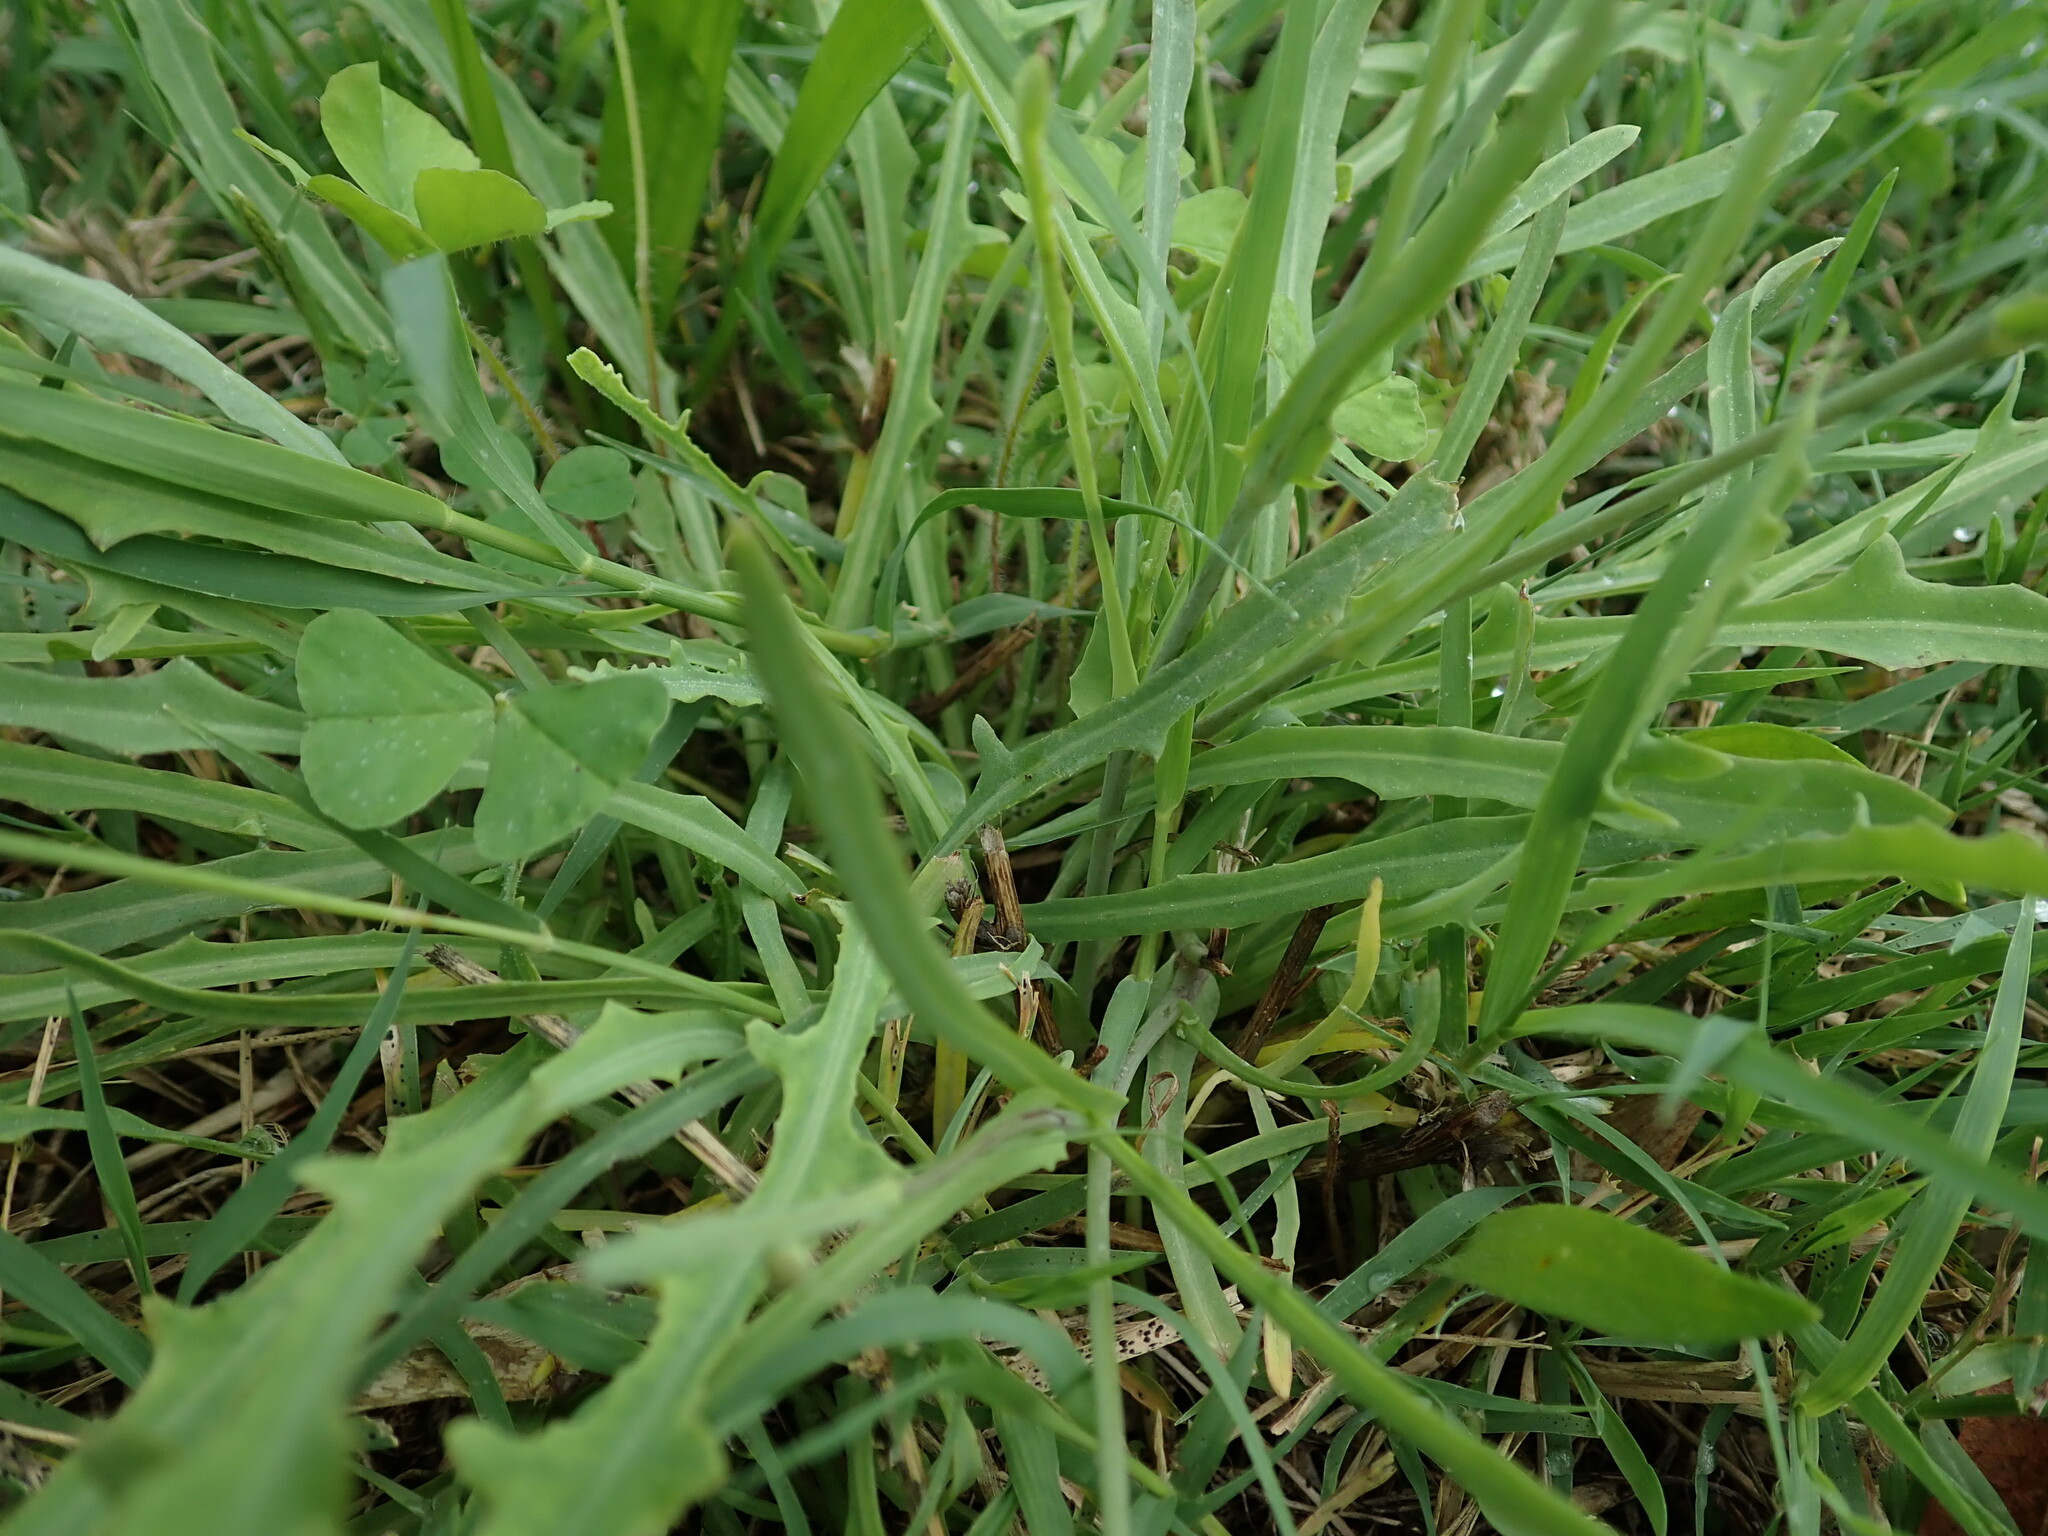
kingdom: Plantae
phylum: Tracheophyta
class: Magnoliopsida
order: Asterales
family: Asteraceae
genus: Reichardia
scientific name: Reichardia picroides
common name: Common brighteyes
